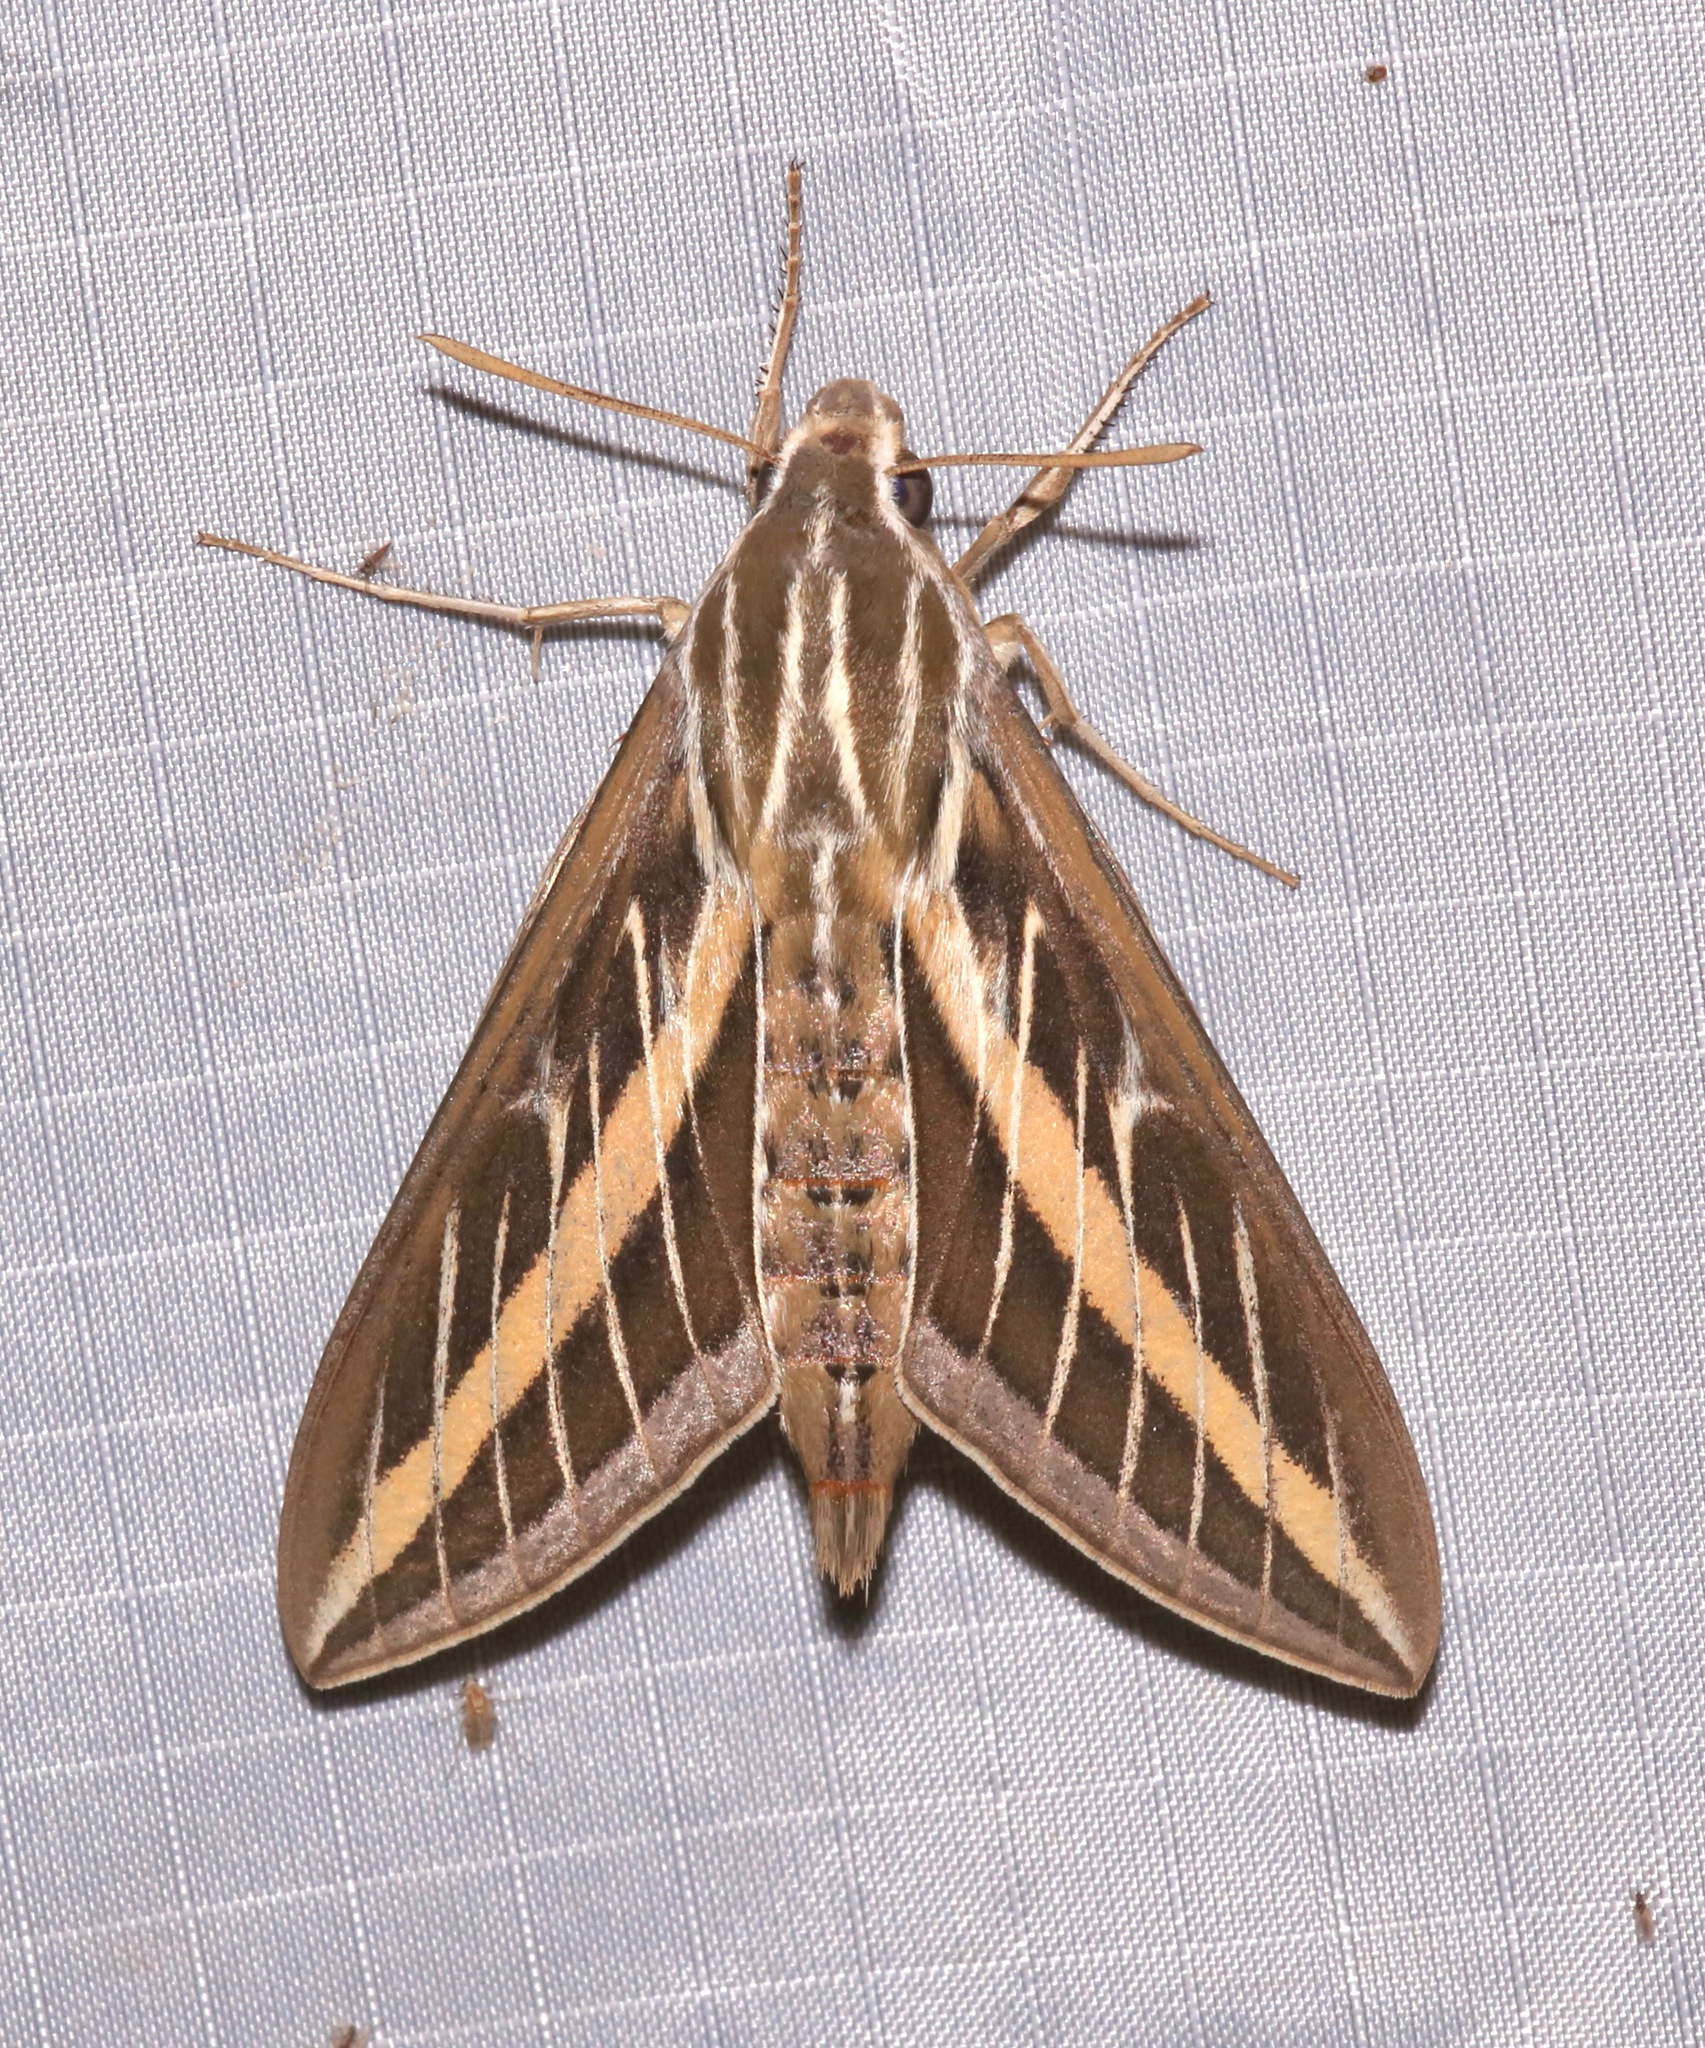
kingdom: Animalia
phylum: Arthropoda
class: Insecta
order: Lepidoptera
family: Sphingidae
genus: Hyles
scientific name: Hyles lineata
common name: White-lined sphinx
